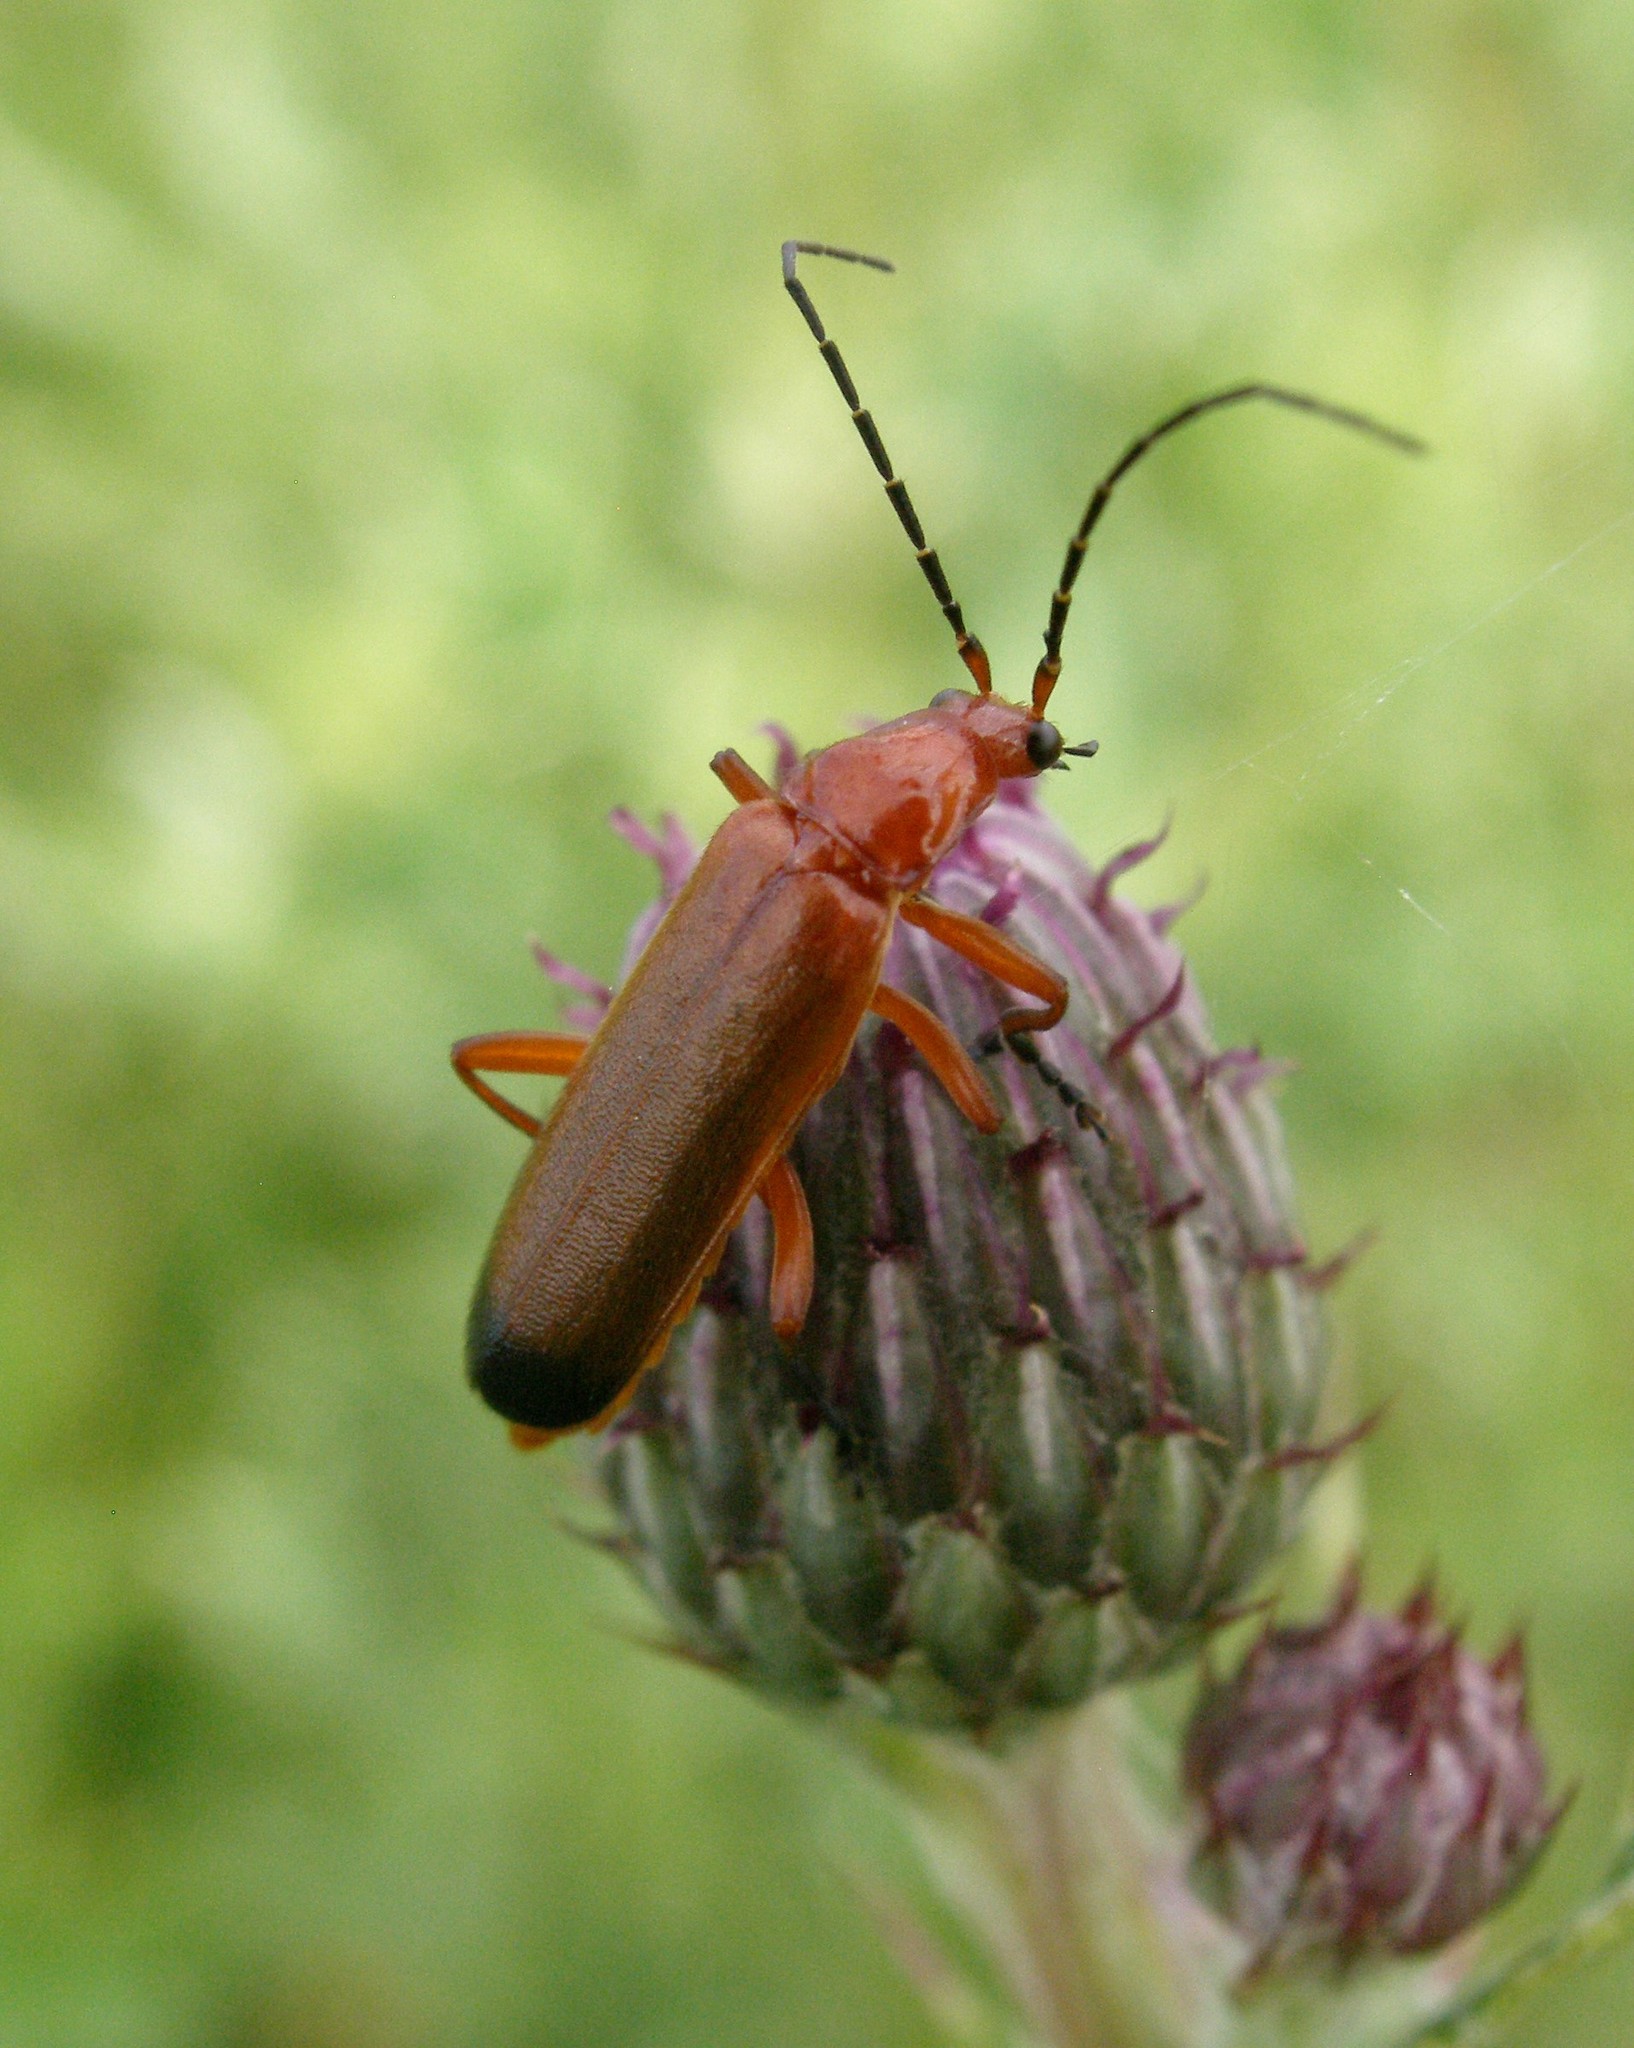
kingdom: Animalia
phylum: Arthropoda
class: Insecta
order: Coleoptera
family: Cantharidae
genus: Rhagonycha
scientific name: Rhagonycha fulva
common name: Common red soldier beetle
